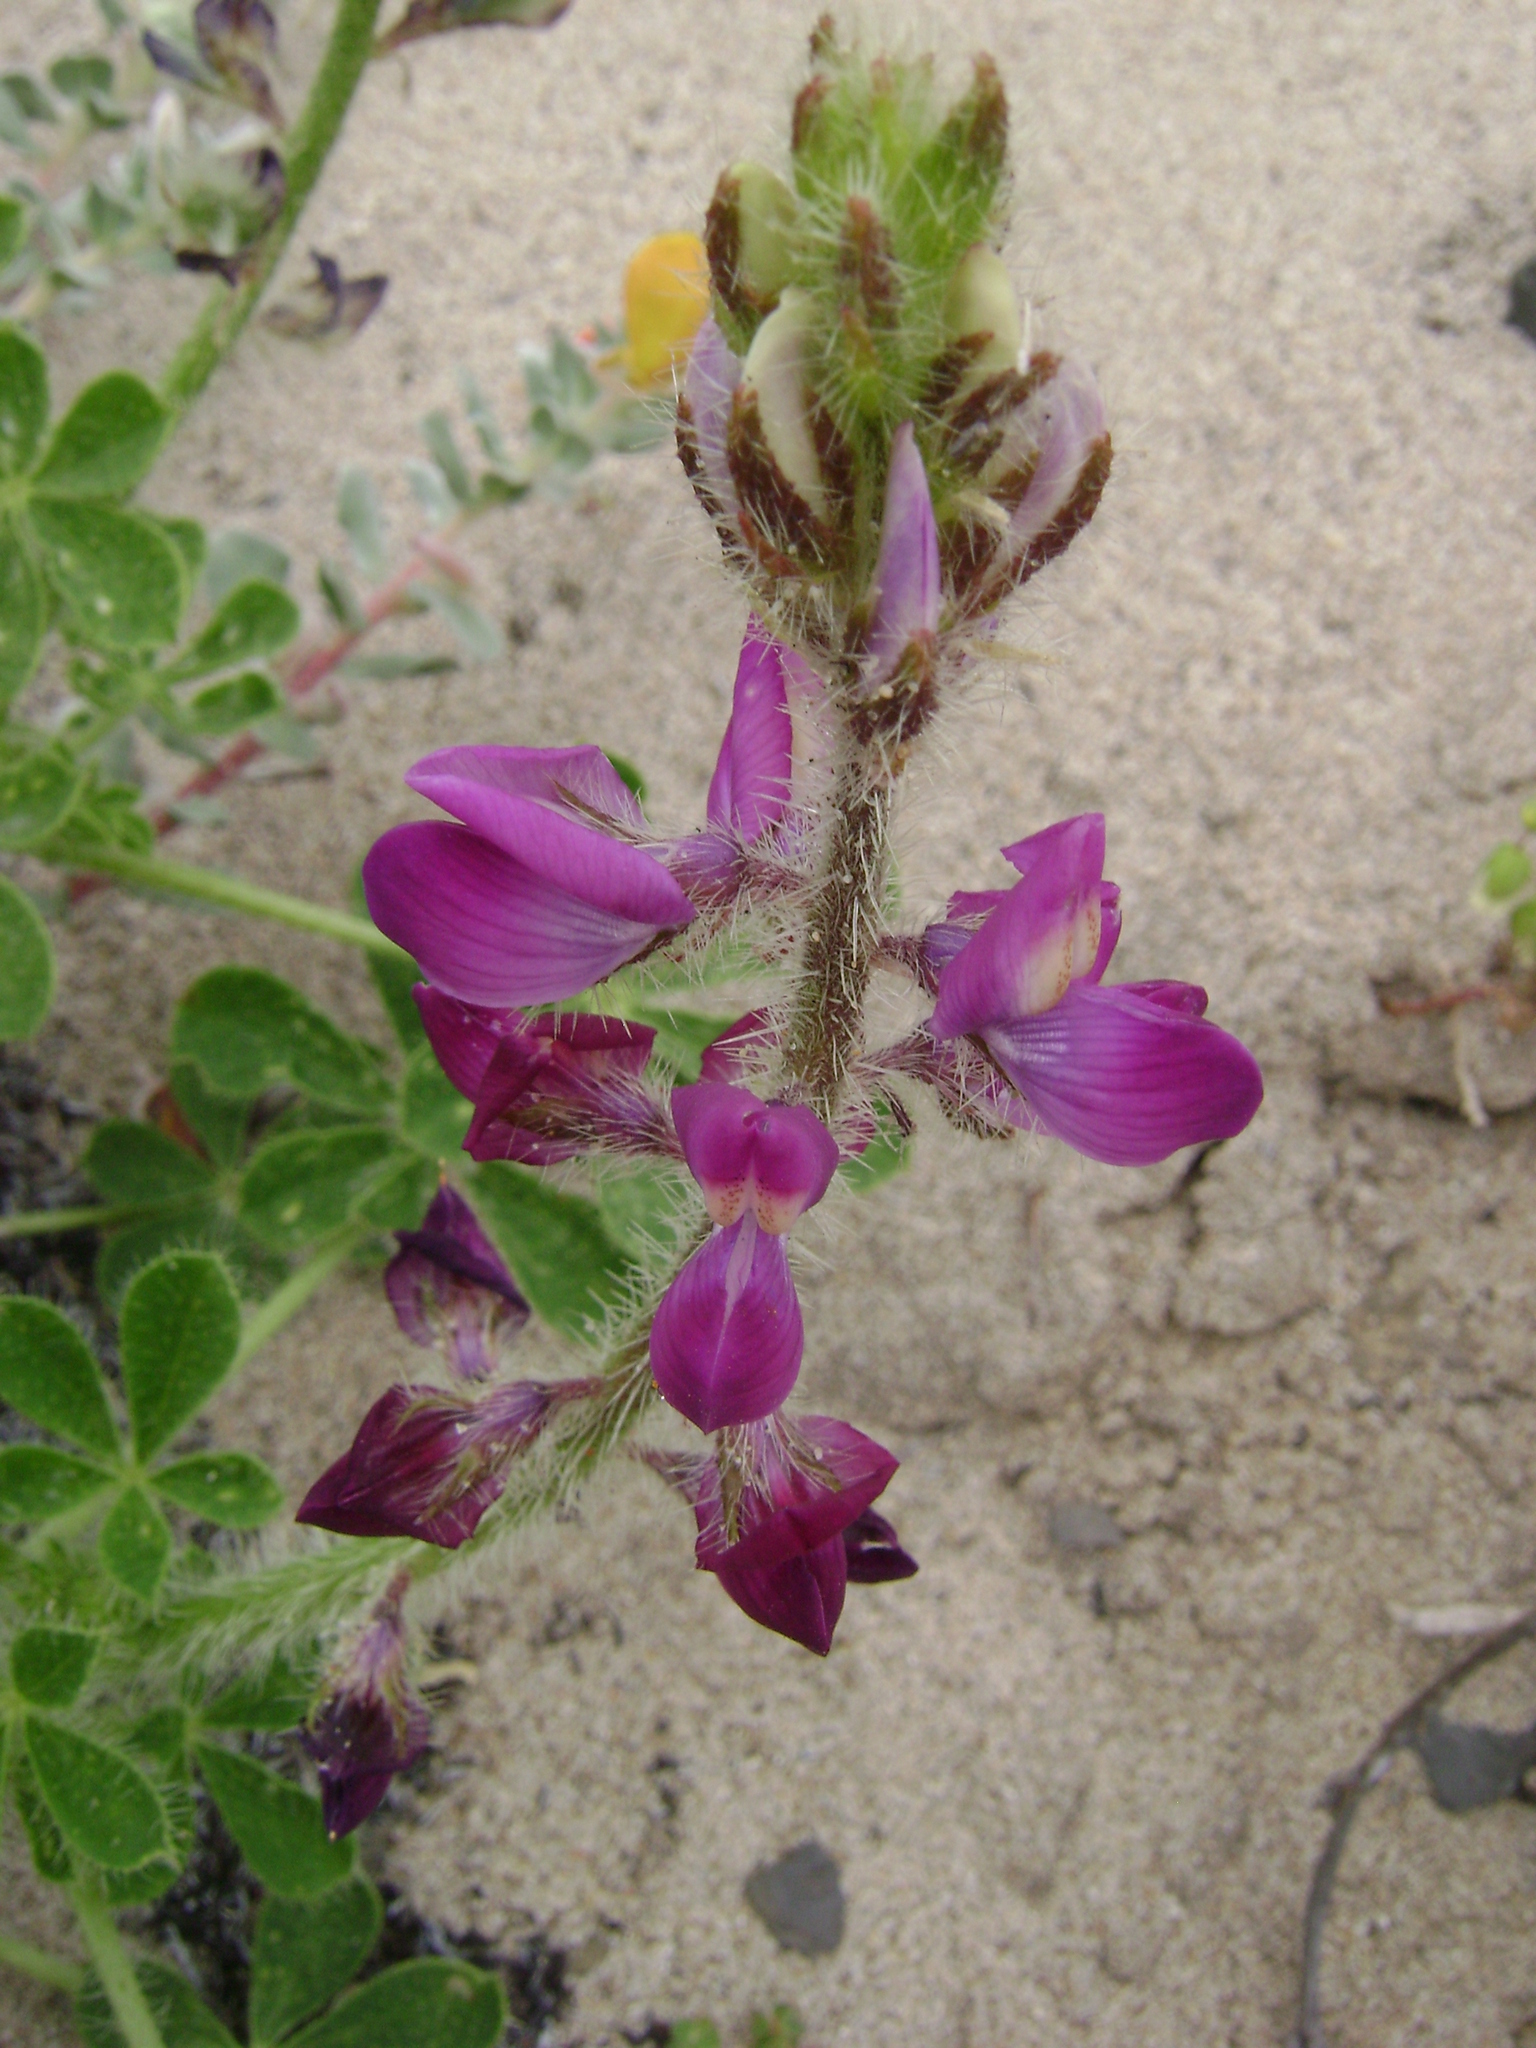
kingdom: Plantae
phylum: Tracheophyta
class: Magnoliopsida
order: Fabales
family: Fabaceae
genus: Lupinus
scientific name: Lupinus hirsutissimus
